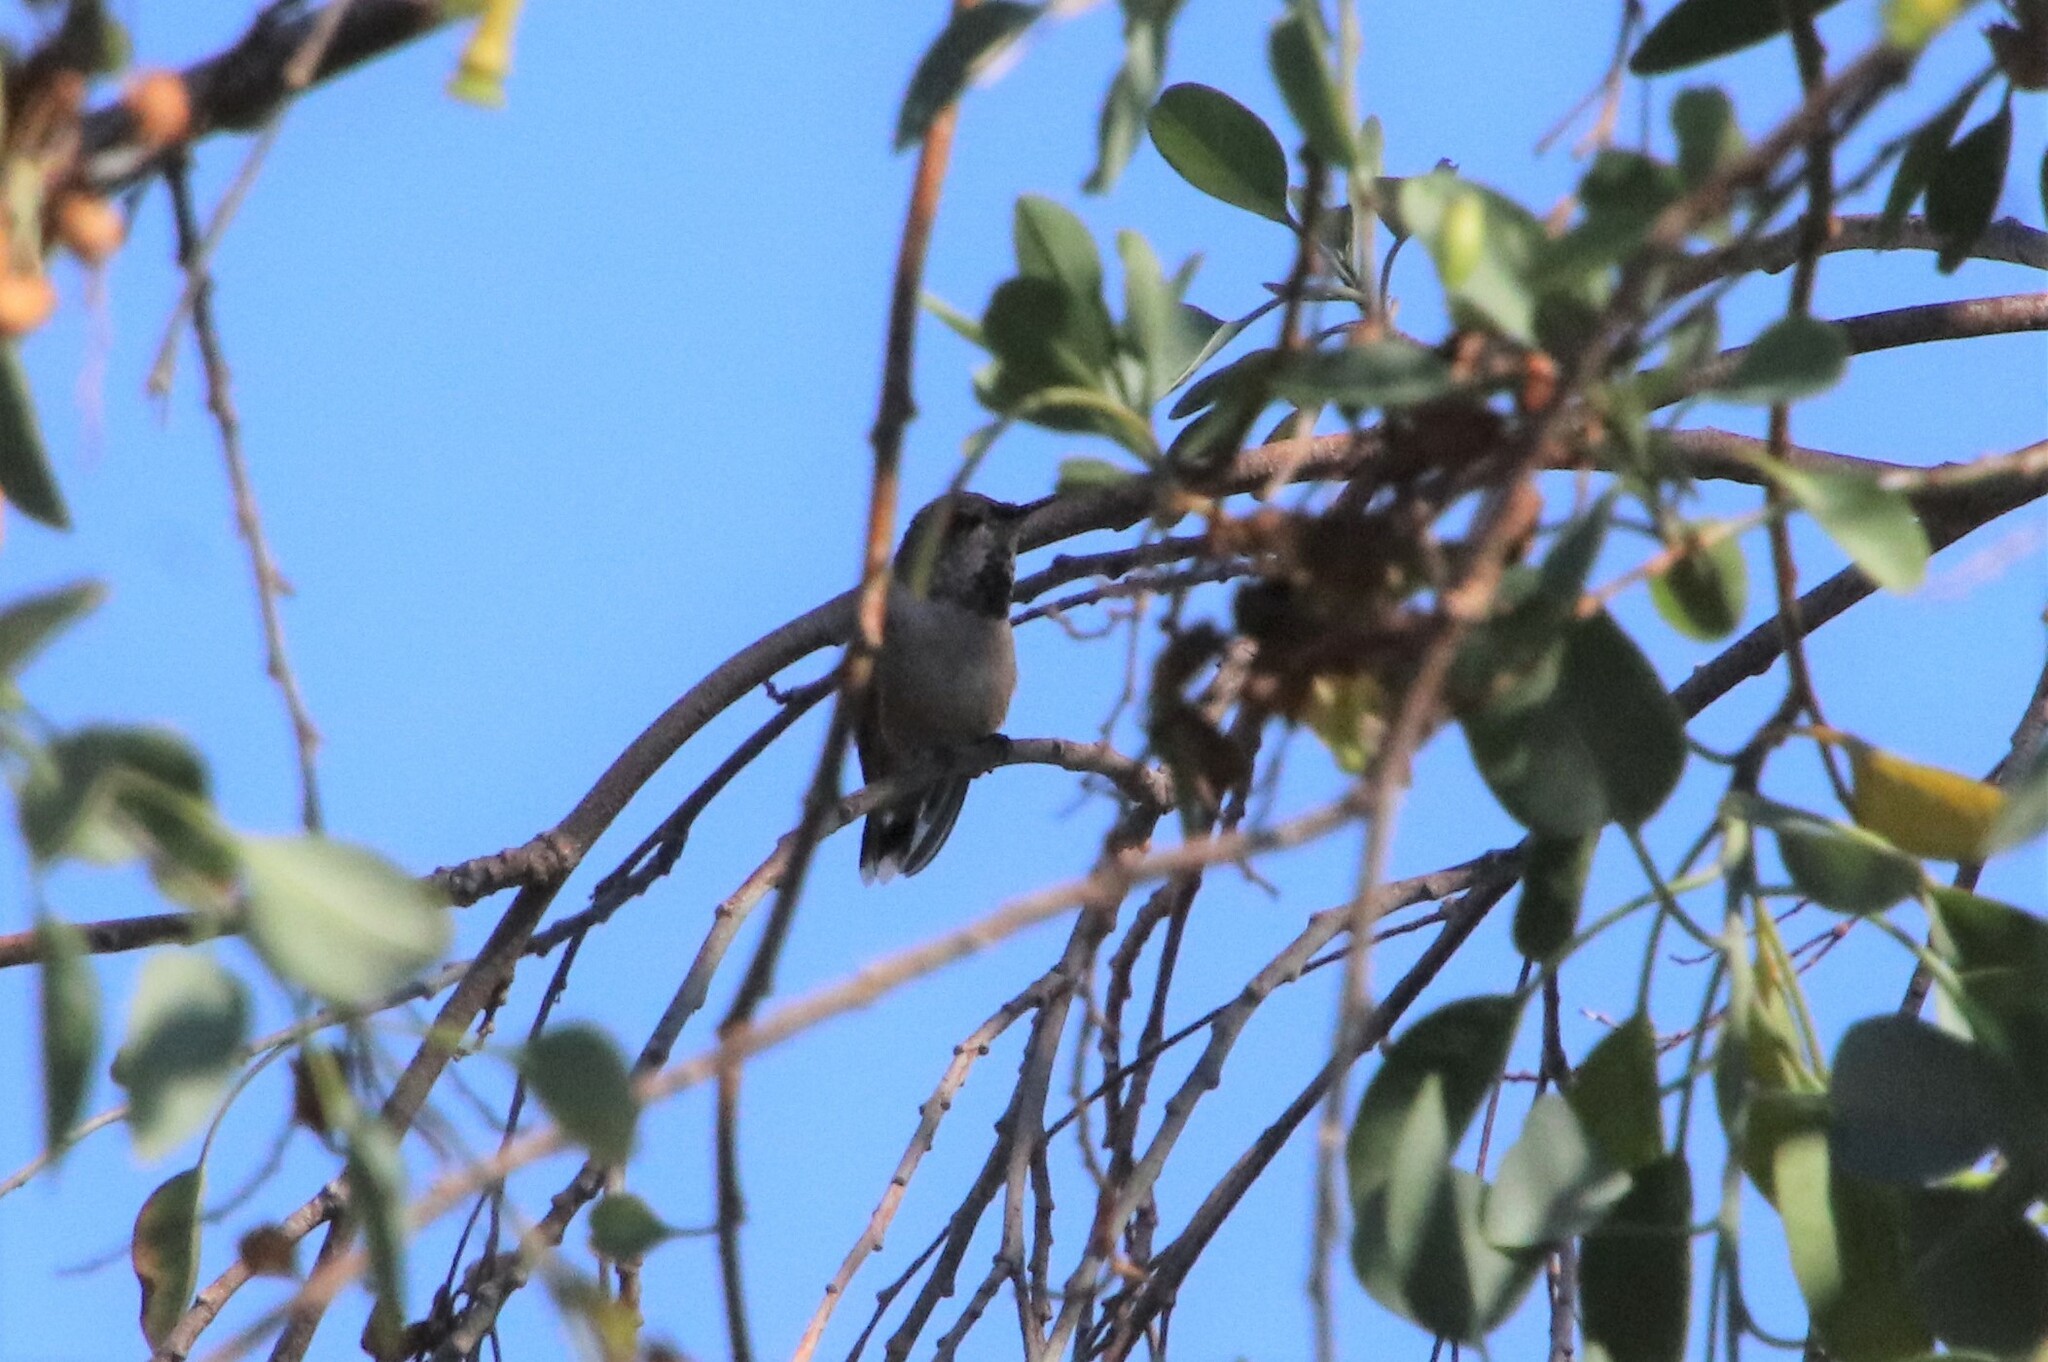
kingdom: Animalia
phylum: Chordata
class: Aves
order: Apodiformes
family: Trochilidae
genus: Selasphorus
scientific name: Selasphorus sasin
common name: Allen's hummingbird
